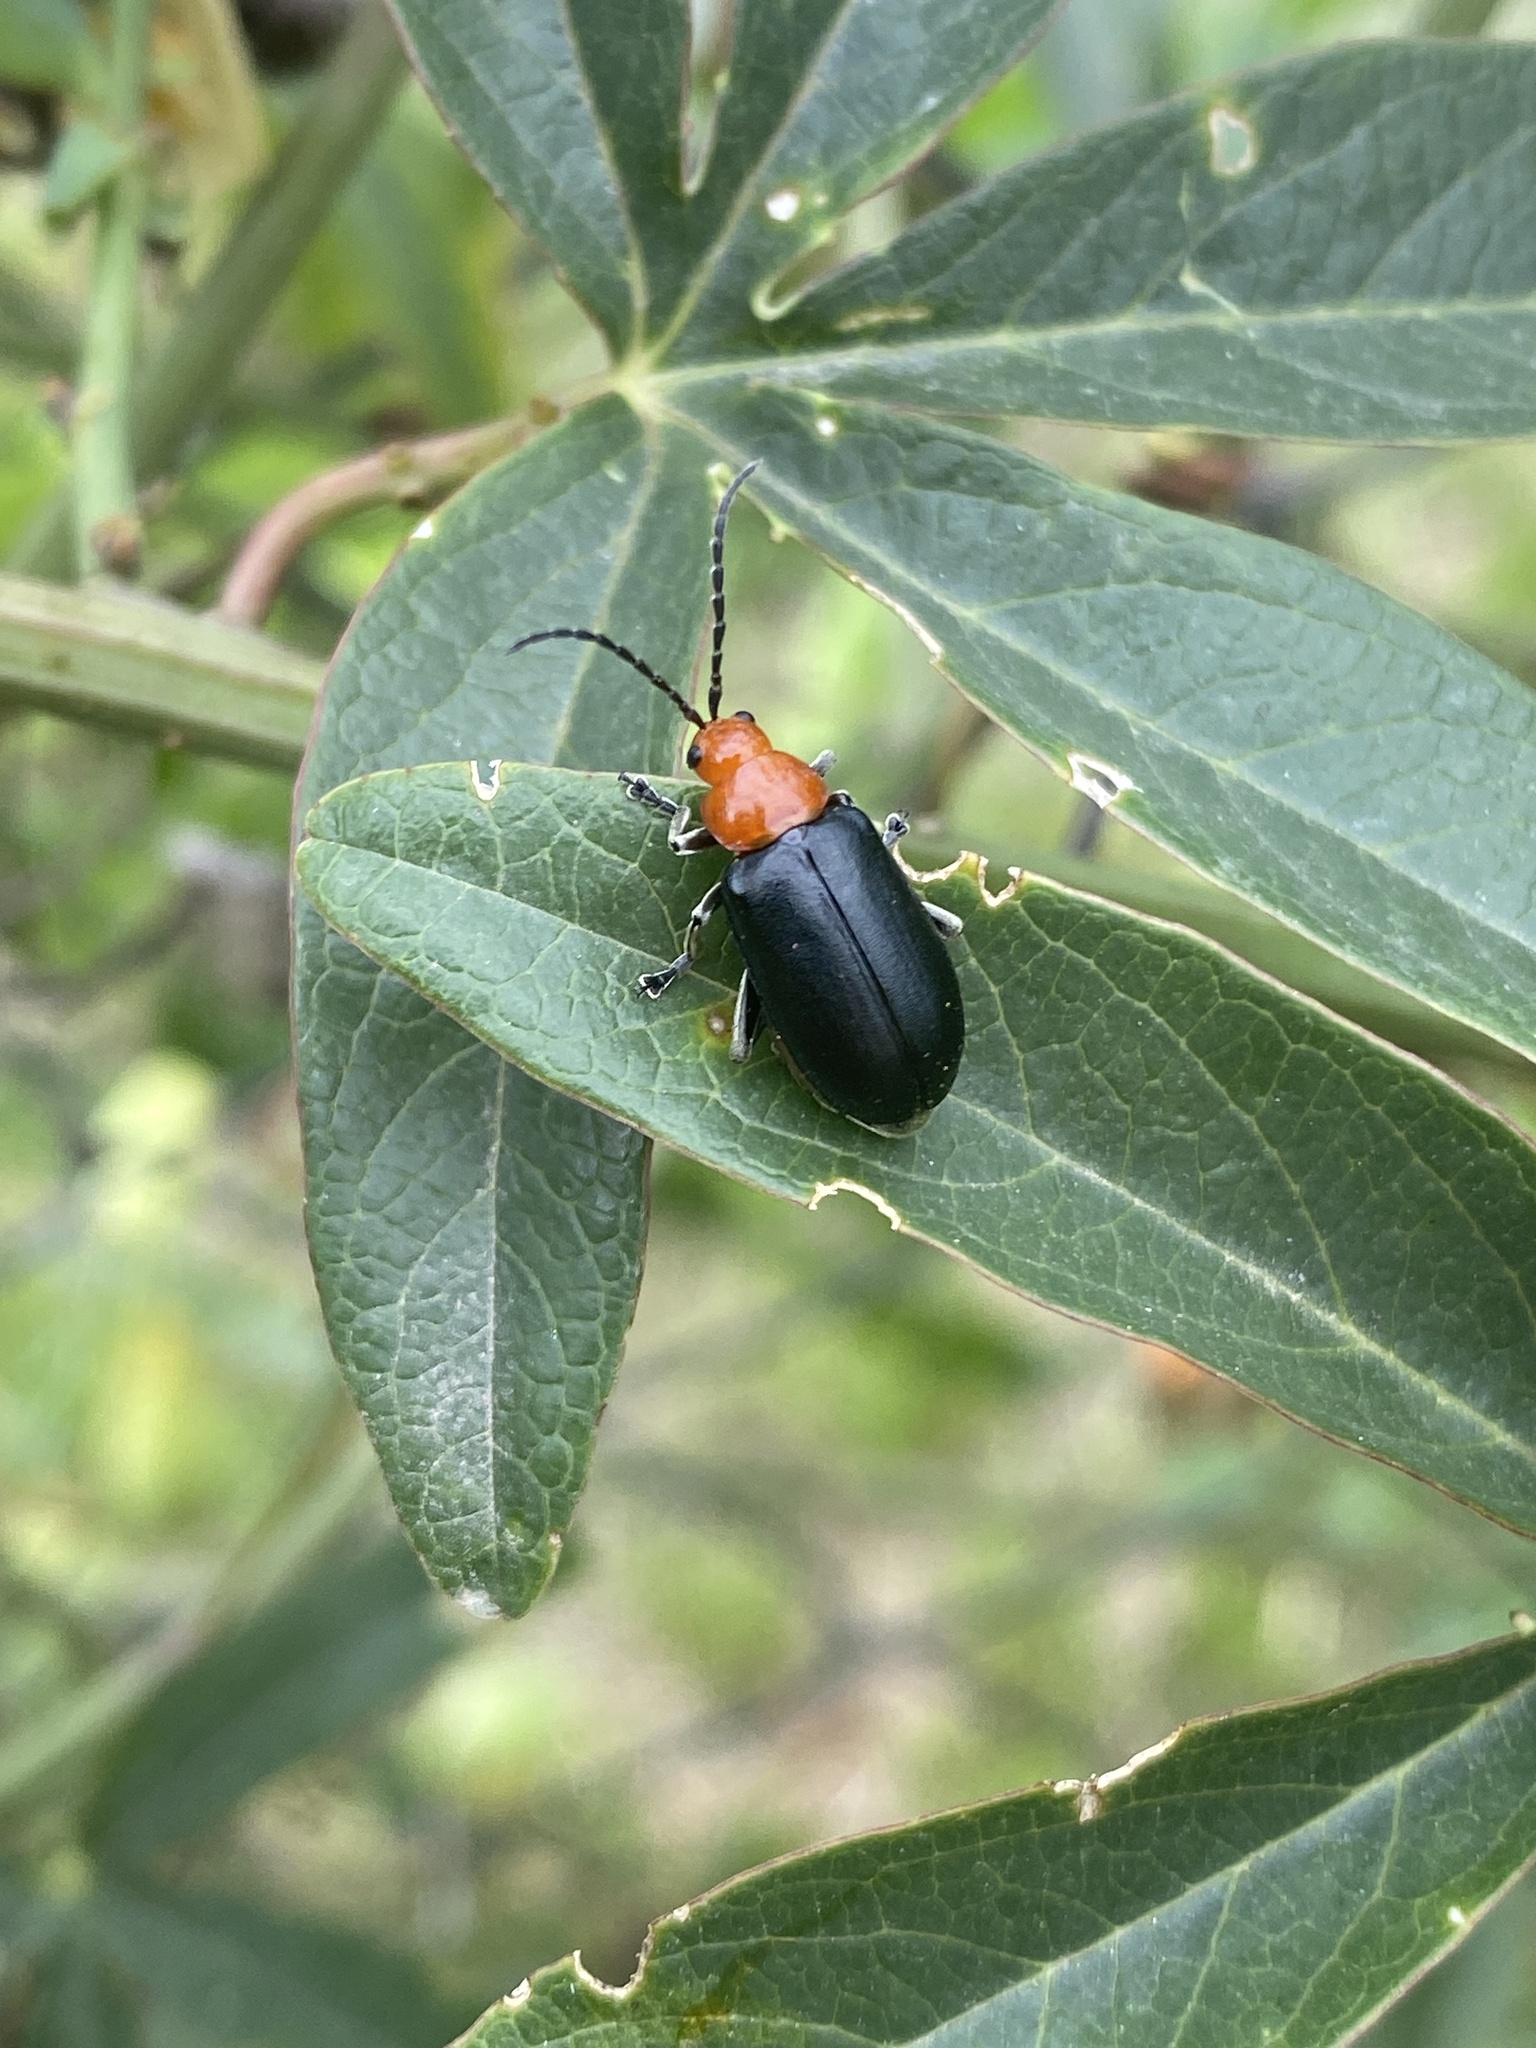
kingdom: Plantae
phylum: Tracheophyta
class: Magnoliopsida
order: Malpighiales
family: Passifloraceae
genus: Passiflora
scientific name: Passiflora caerulea
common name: Blue passionflower
